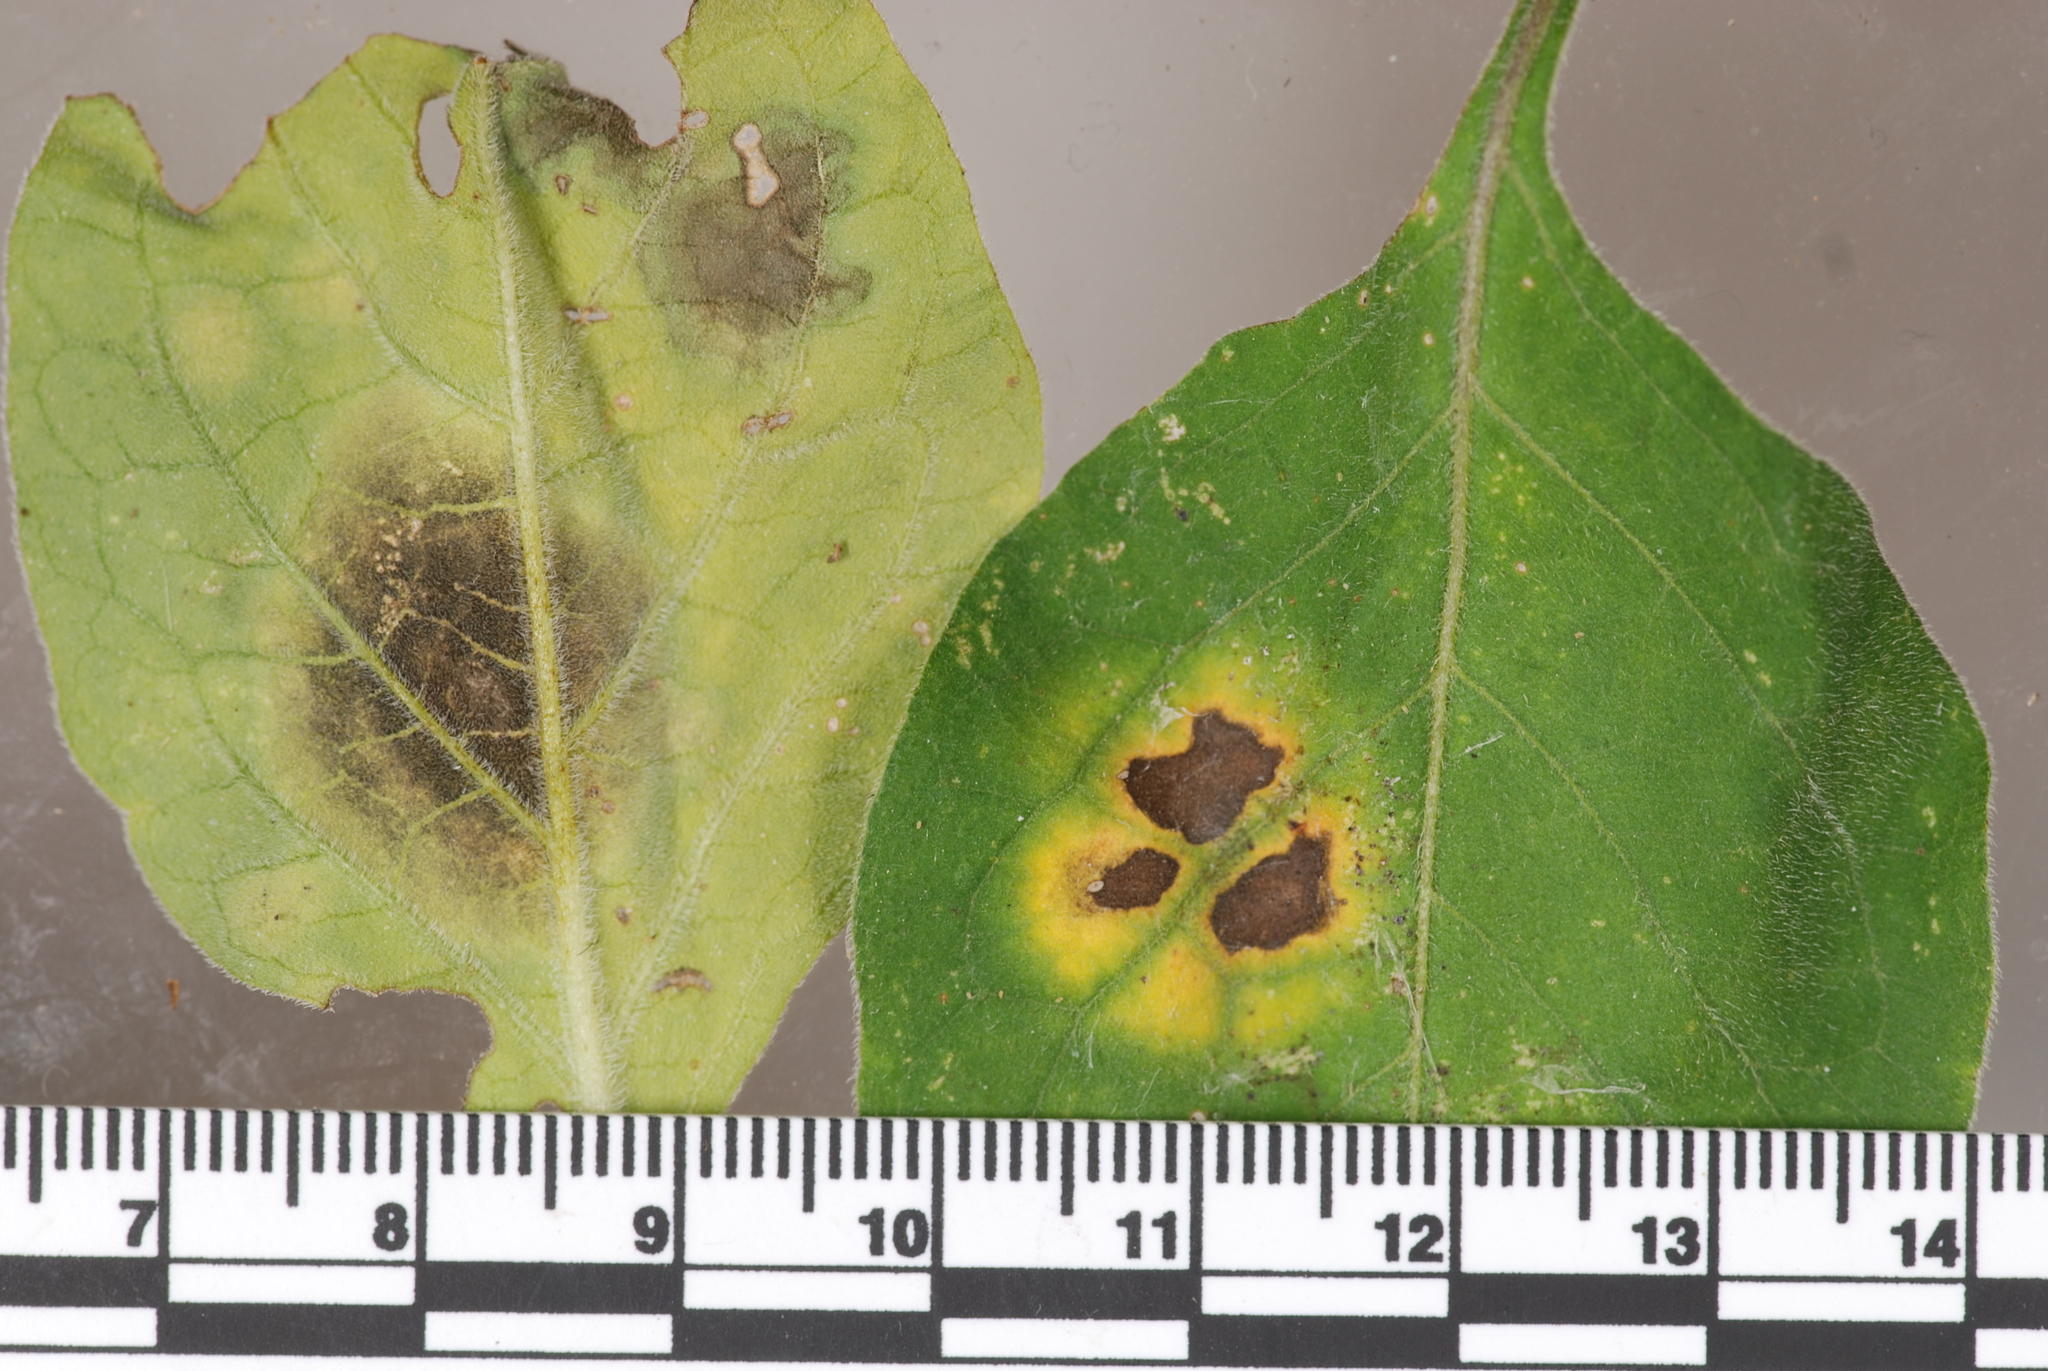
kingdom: Fungi
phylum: Ascomycota
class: Dothideomycetes
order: Mycosphaerellales
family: Mycosphaerellaceae
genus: Pseudocercospora
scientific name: Pseudocercospora atromarginalis
